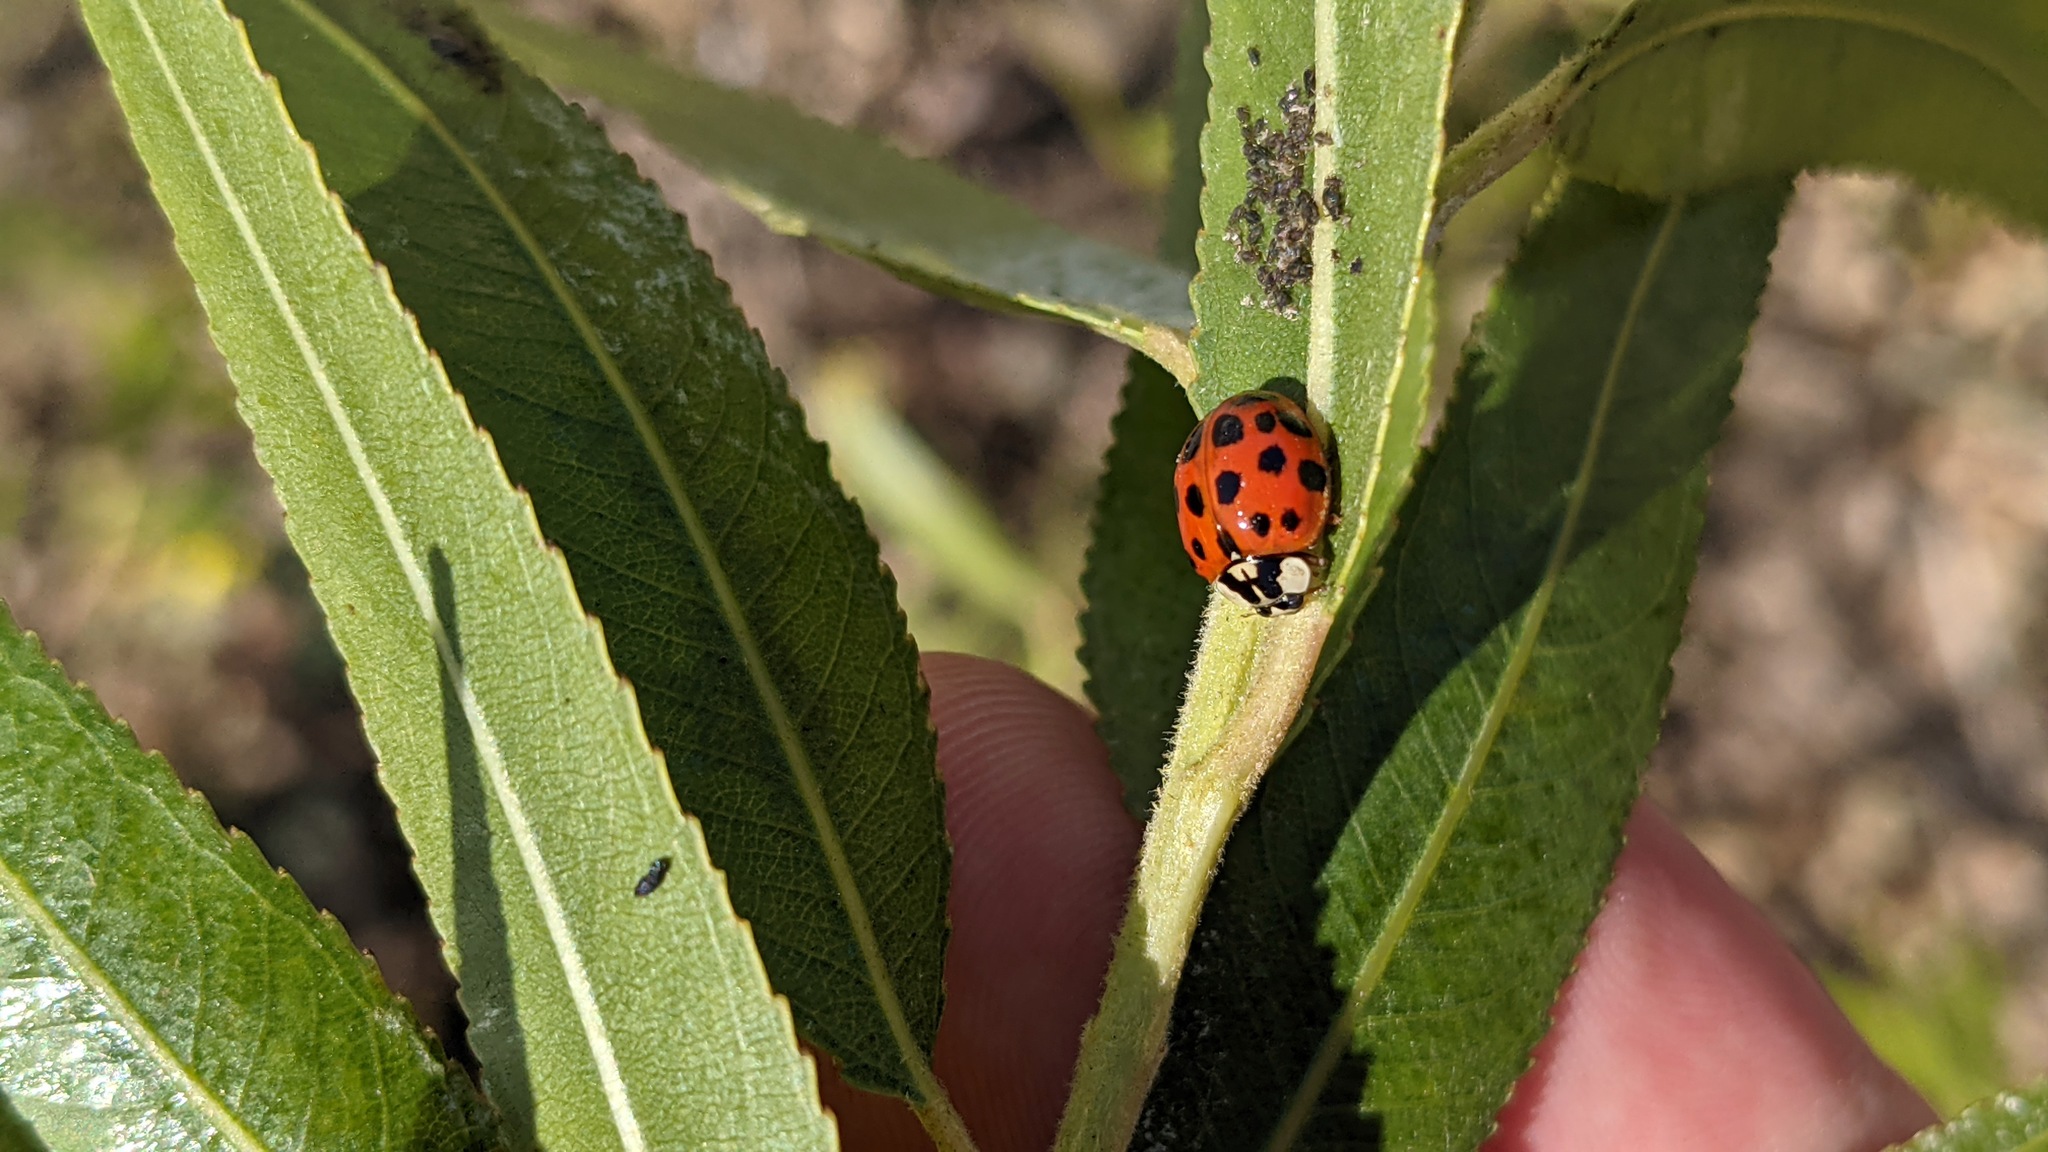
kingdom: Animalia
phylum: Arthropoda
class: Insecta
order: Coleoptera
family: Coccinellidae
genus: Harmonia
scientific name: Harmonia axyridis
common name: Harlequin ladybird
